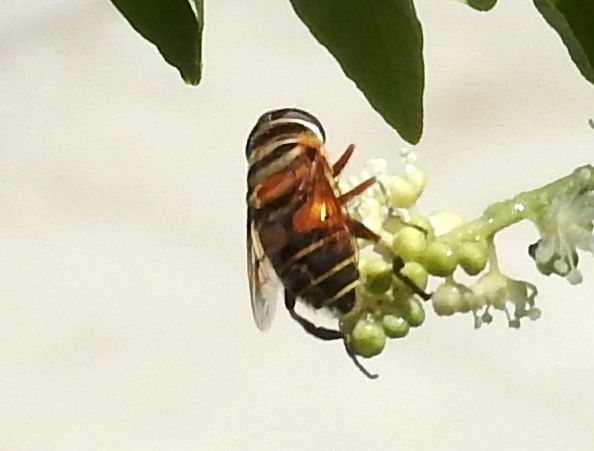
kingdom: Animalia
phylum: Arthropoda
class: Insecta
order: Diptera
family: Syrphidae
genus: Palpada
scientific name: Palpada
